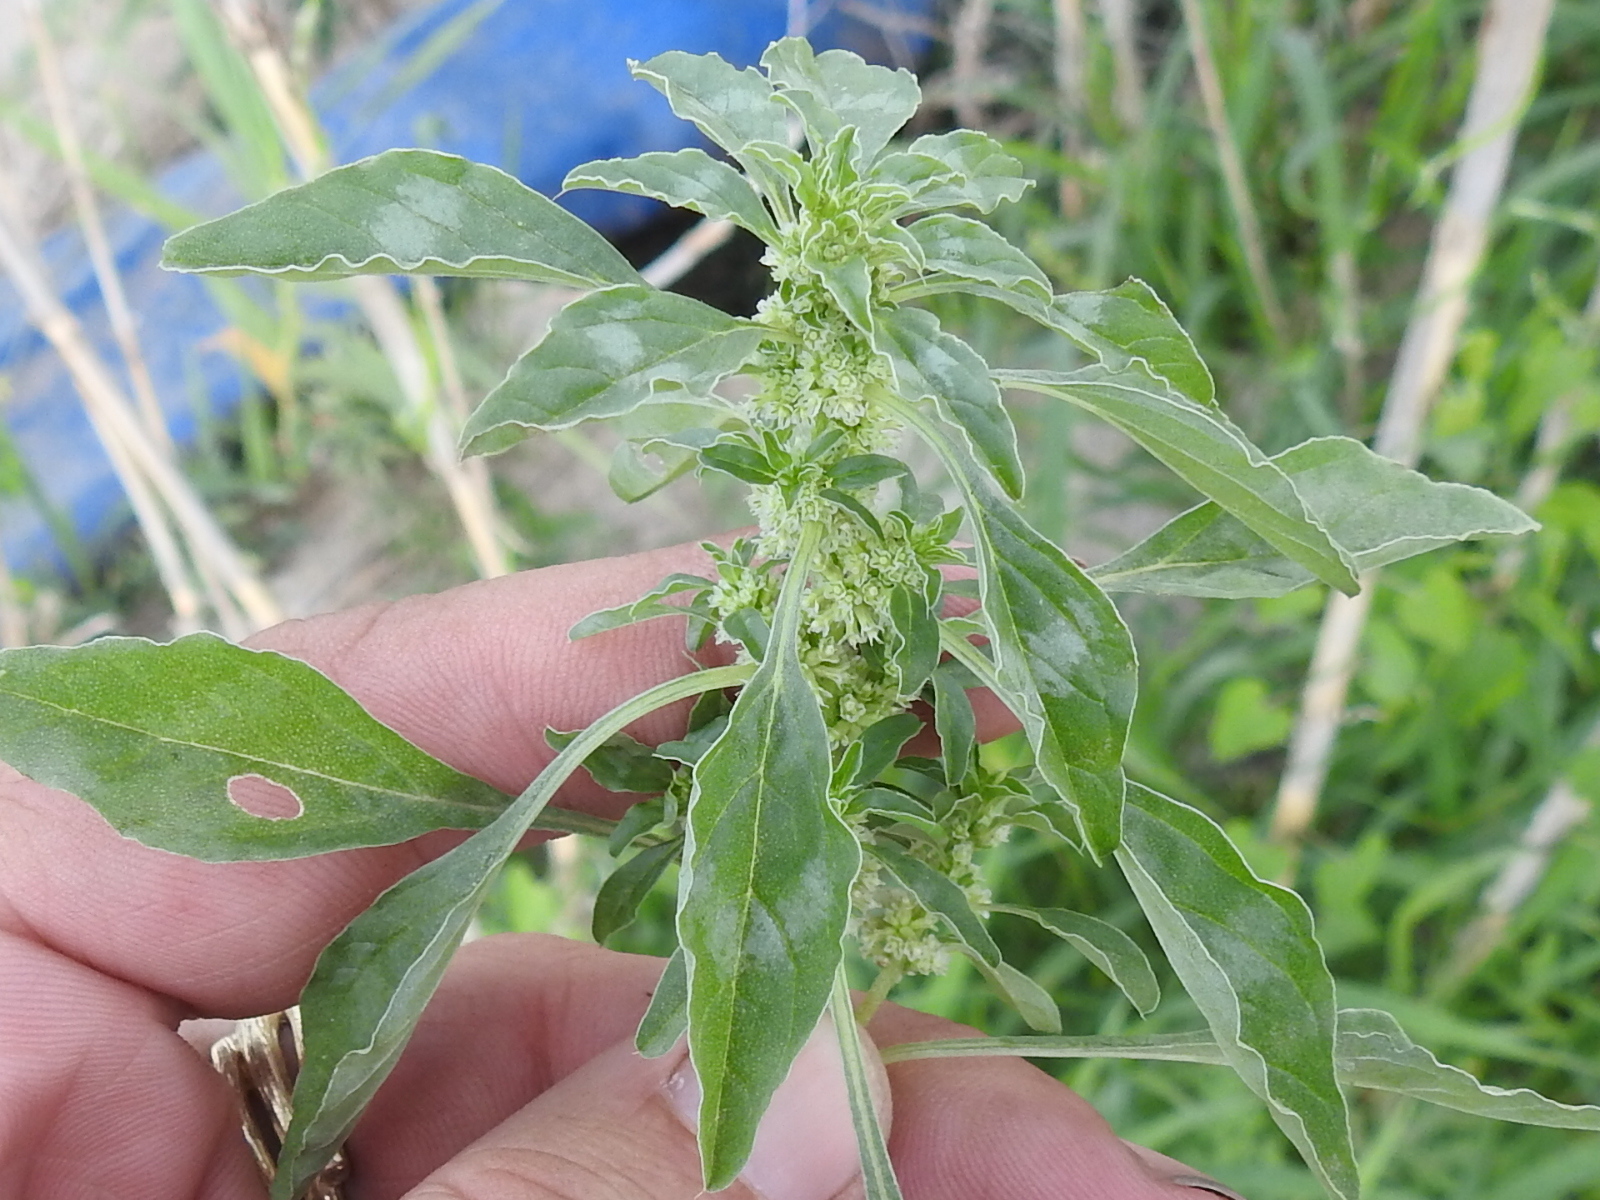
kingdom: Plantae
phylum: Tracheophyta
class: Magnoliopsida
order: Caryophyllales
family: Amaranthaceae
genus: Amaranthus
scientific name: Amaranthus polygonoides
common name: Tropical amaranth
